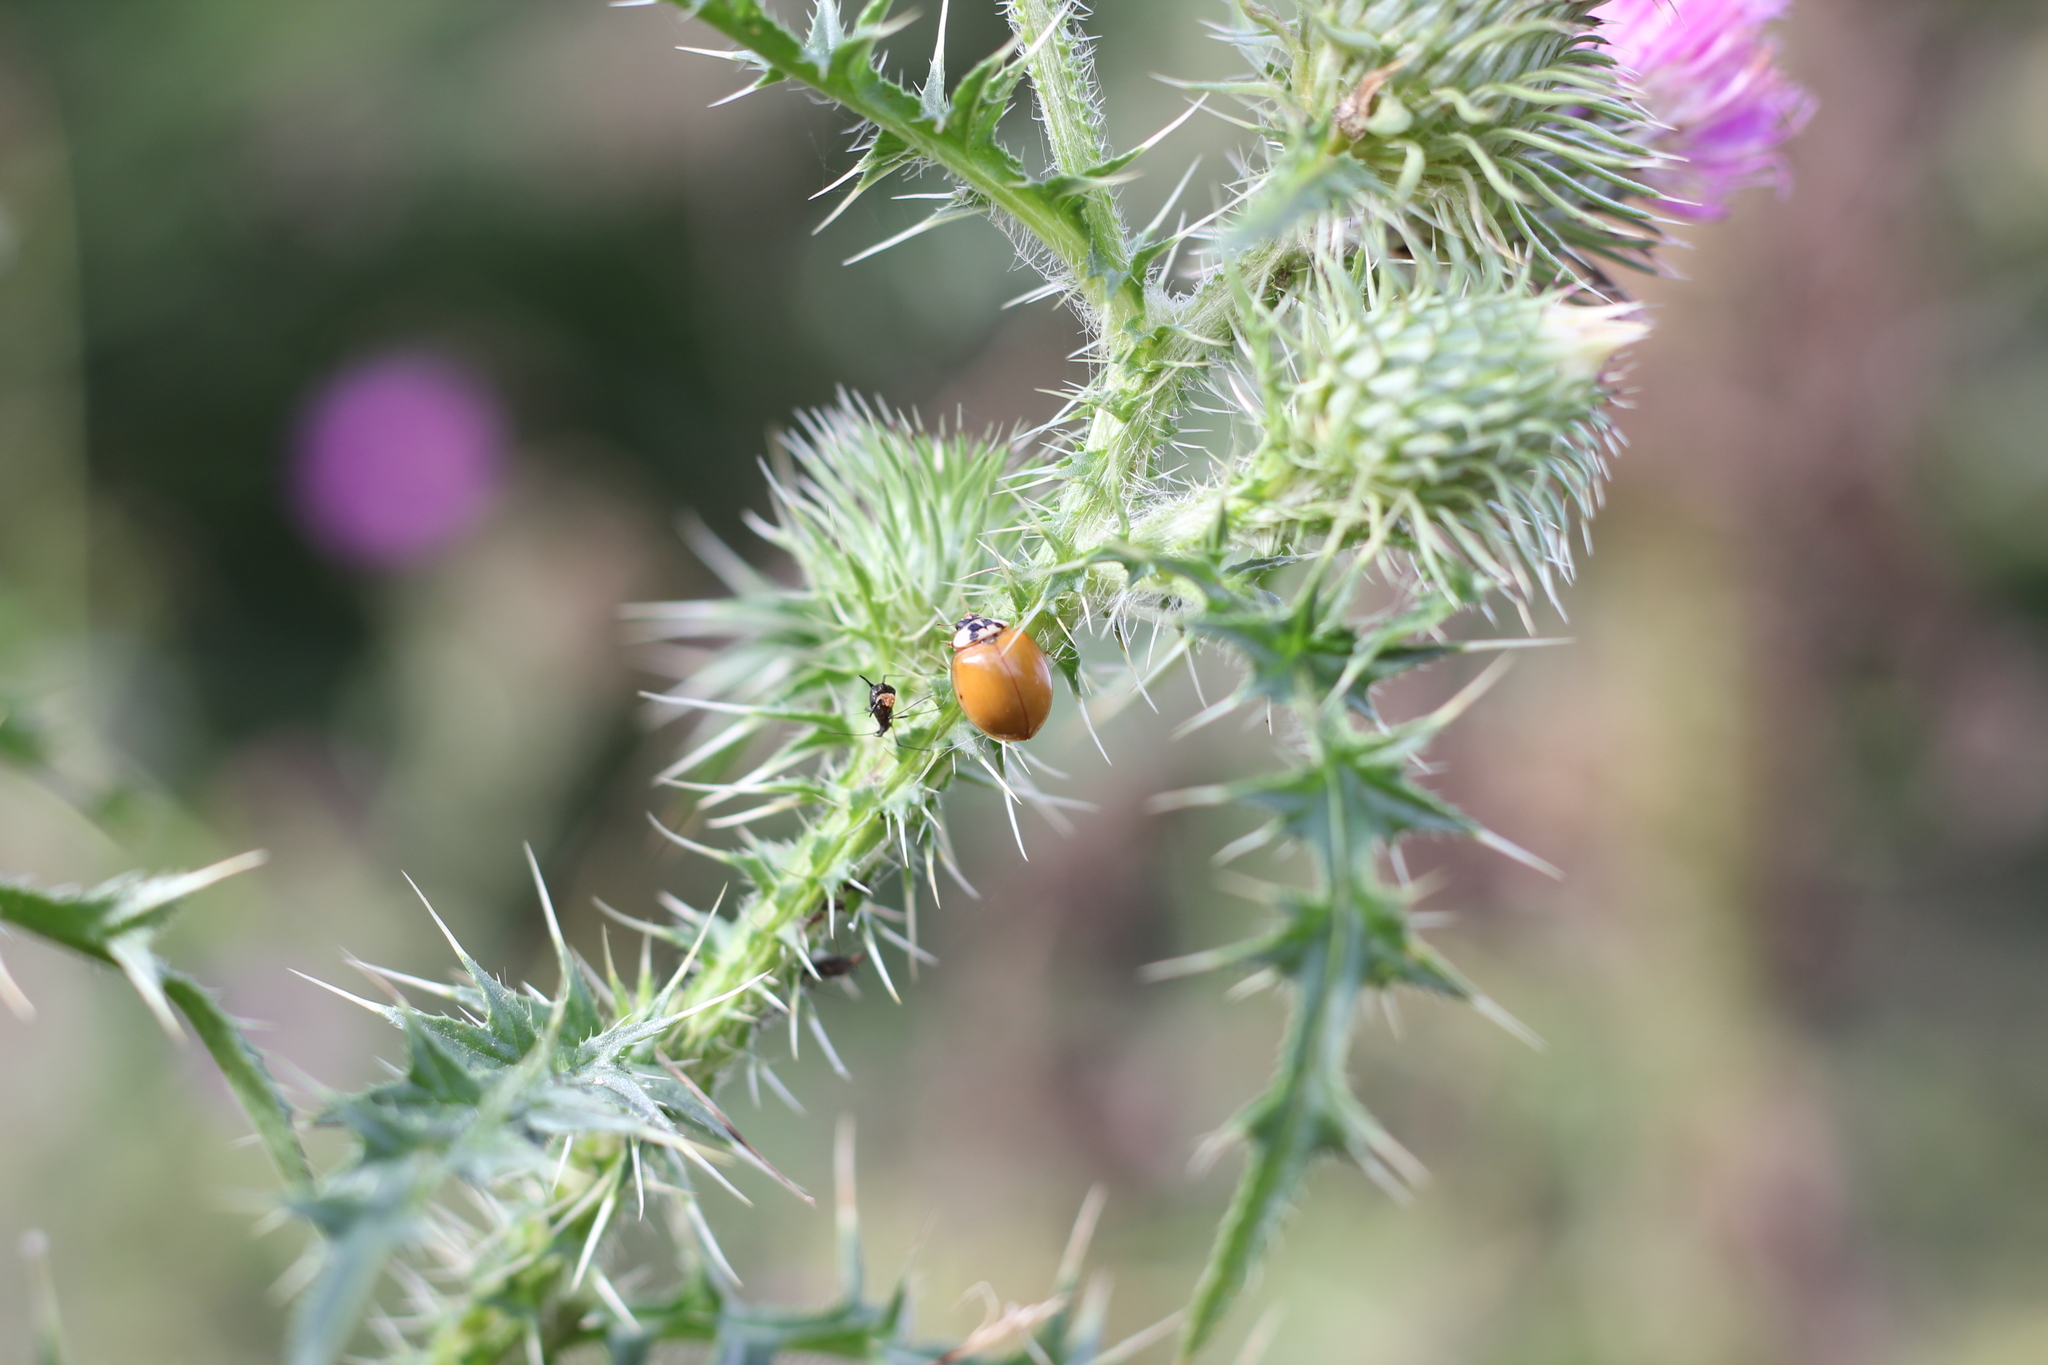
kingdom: Animalia
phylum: Arthropoda
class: Insecta
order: Coleoptera
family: Coccinellidae
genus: Harmonia
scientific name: Harmonia axyridis
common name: Harlequin ladybird
